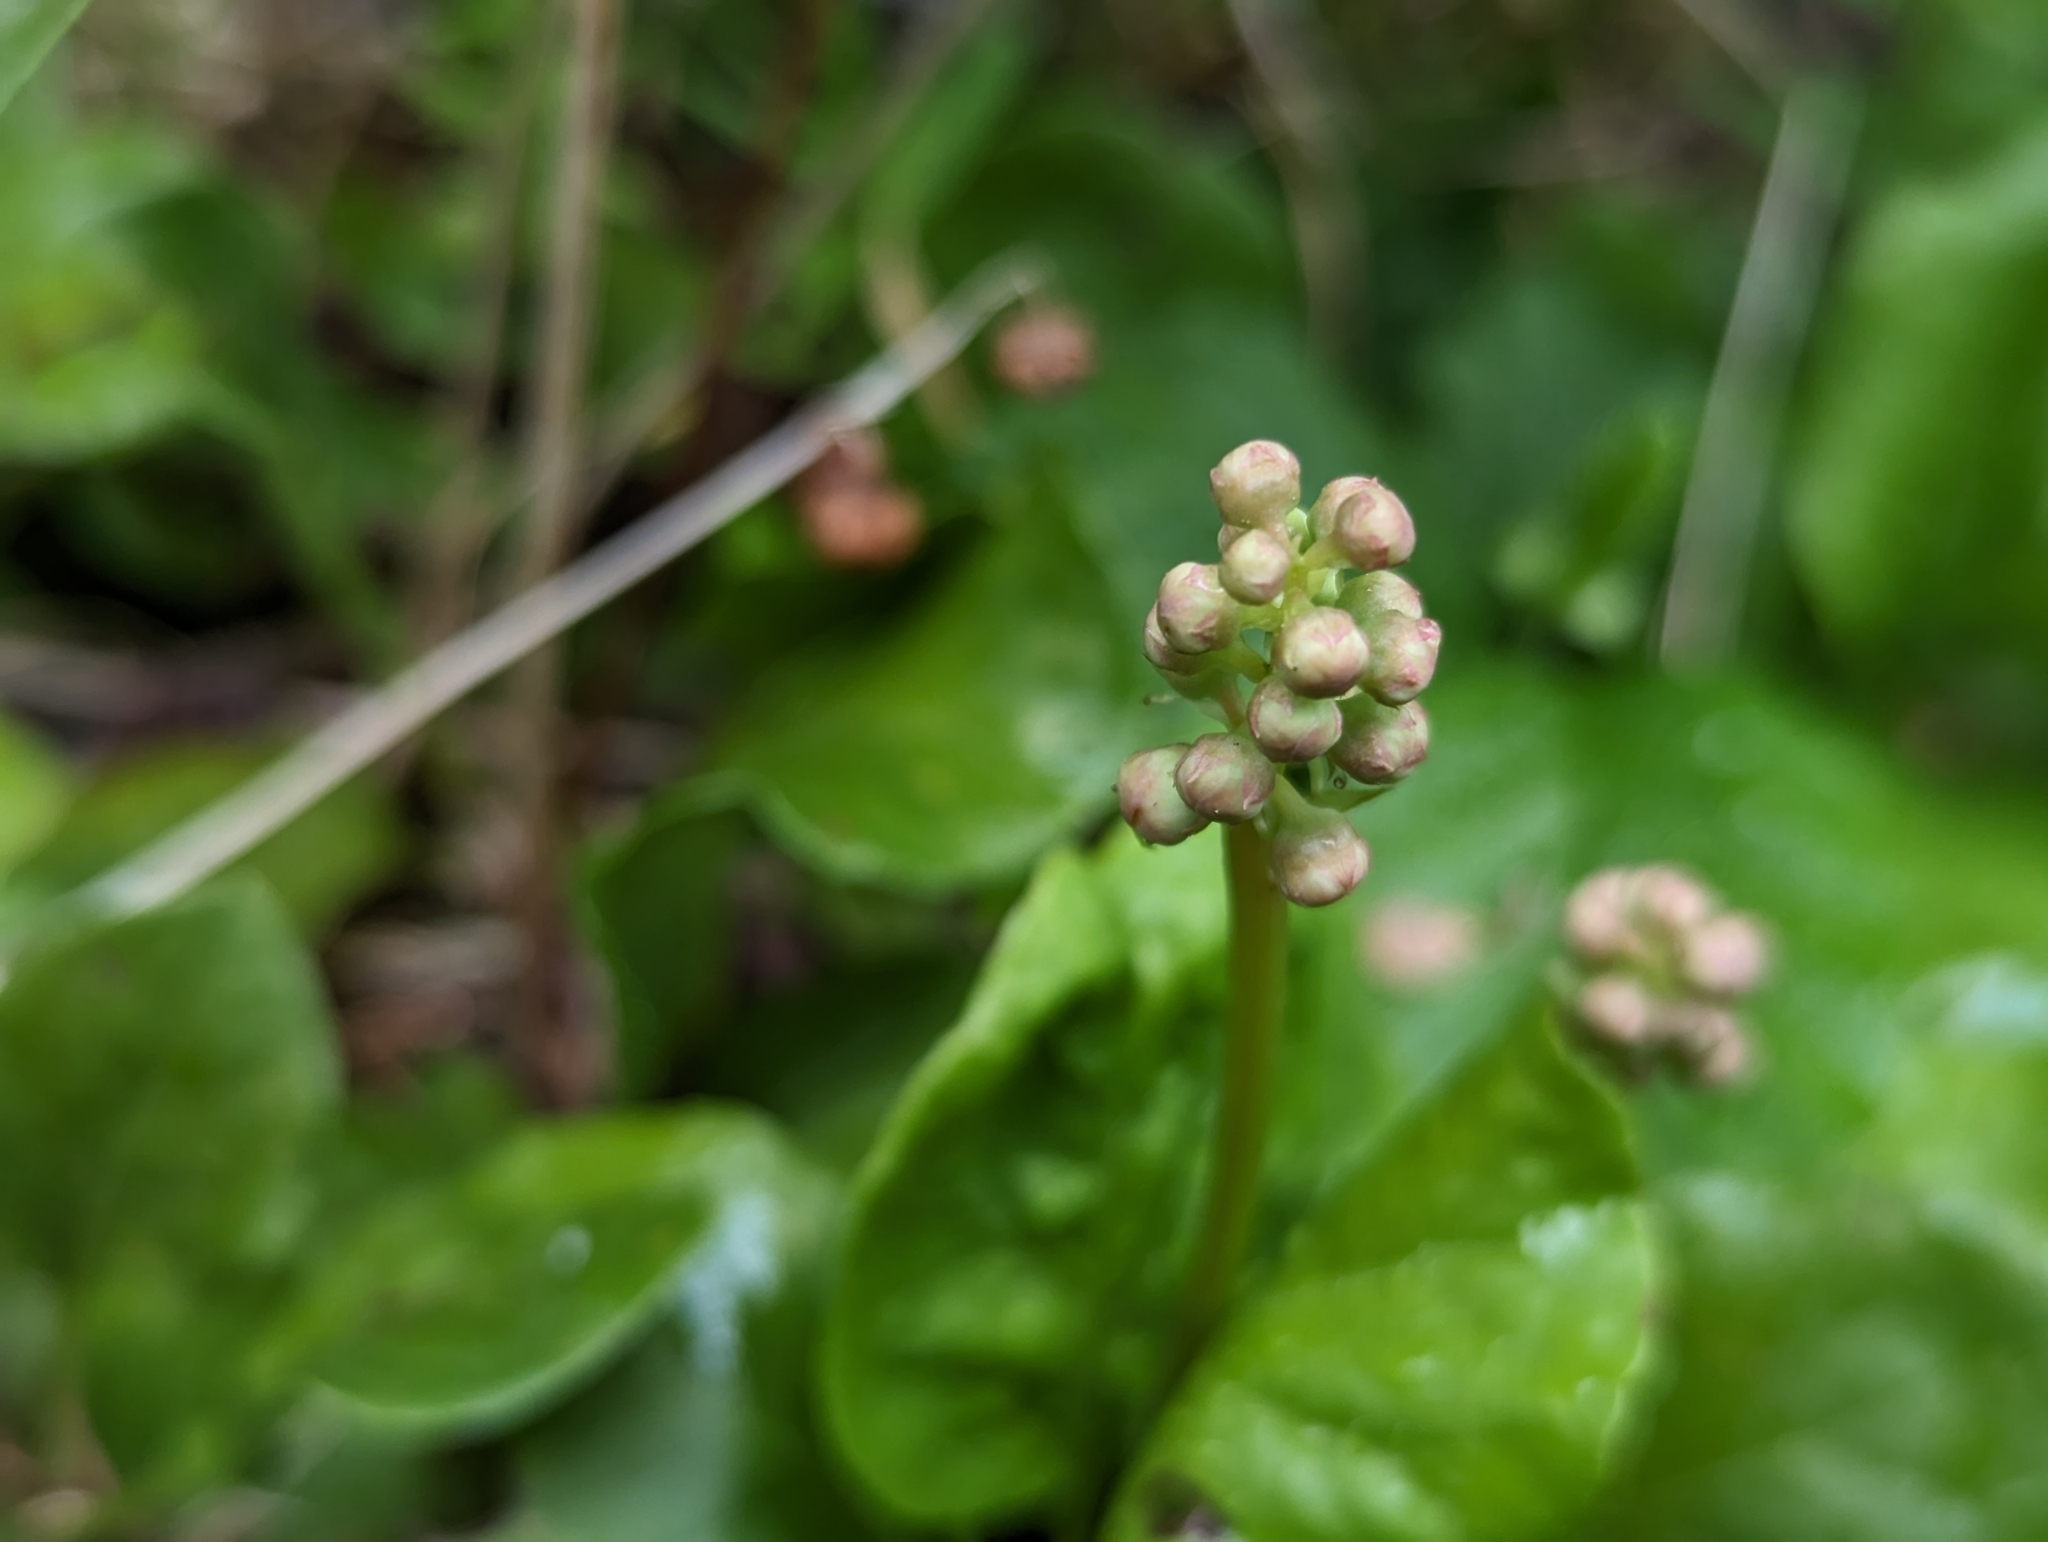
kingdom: Plantae
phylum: Tracheophyta
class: Magnoliopsida
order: Ericales
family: Ericaceae
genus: Pyrola
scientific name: Pyrola minor
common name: Common wintergreen
